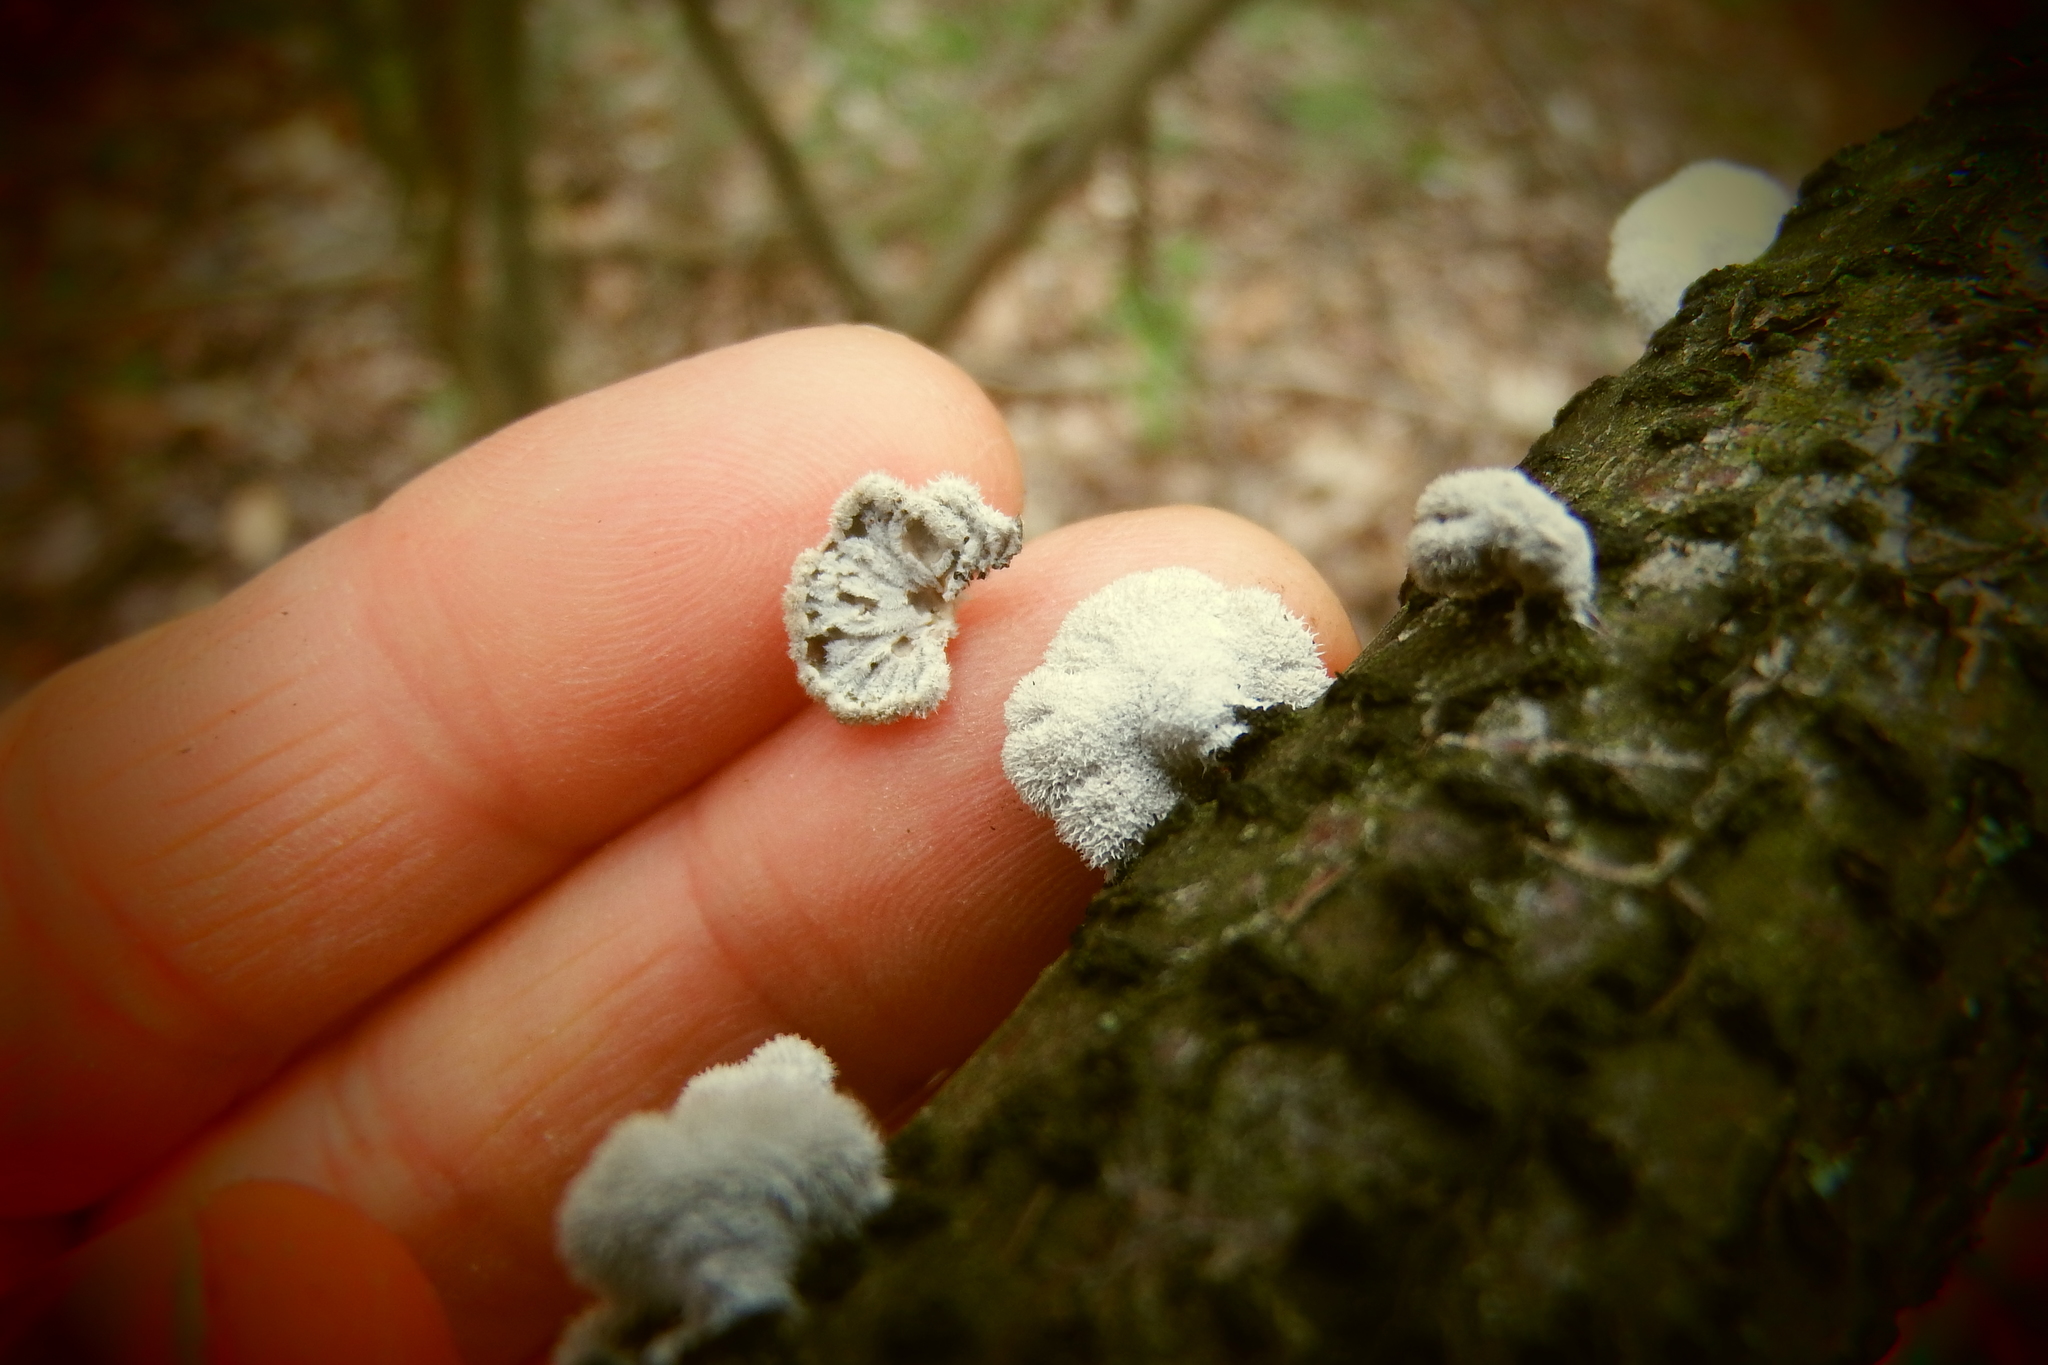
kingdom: Fungi
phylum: Basidiomycota
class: Agaricomycetes
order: Agaricales
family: Schizophyllaceae
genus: Schizophyllum
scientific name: Schizophyllum commune
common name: Common porecrust
